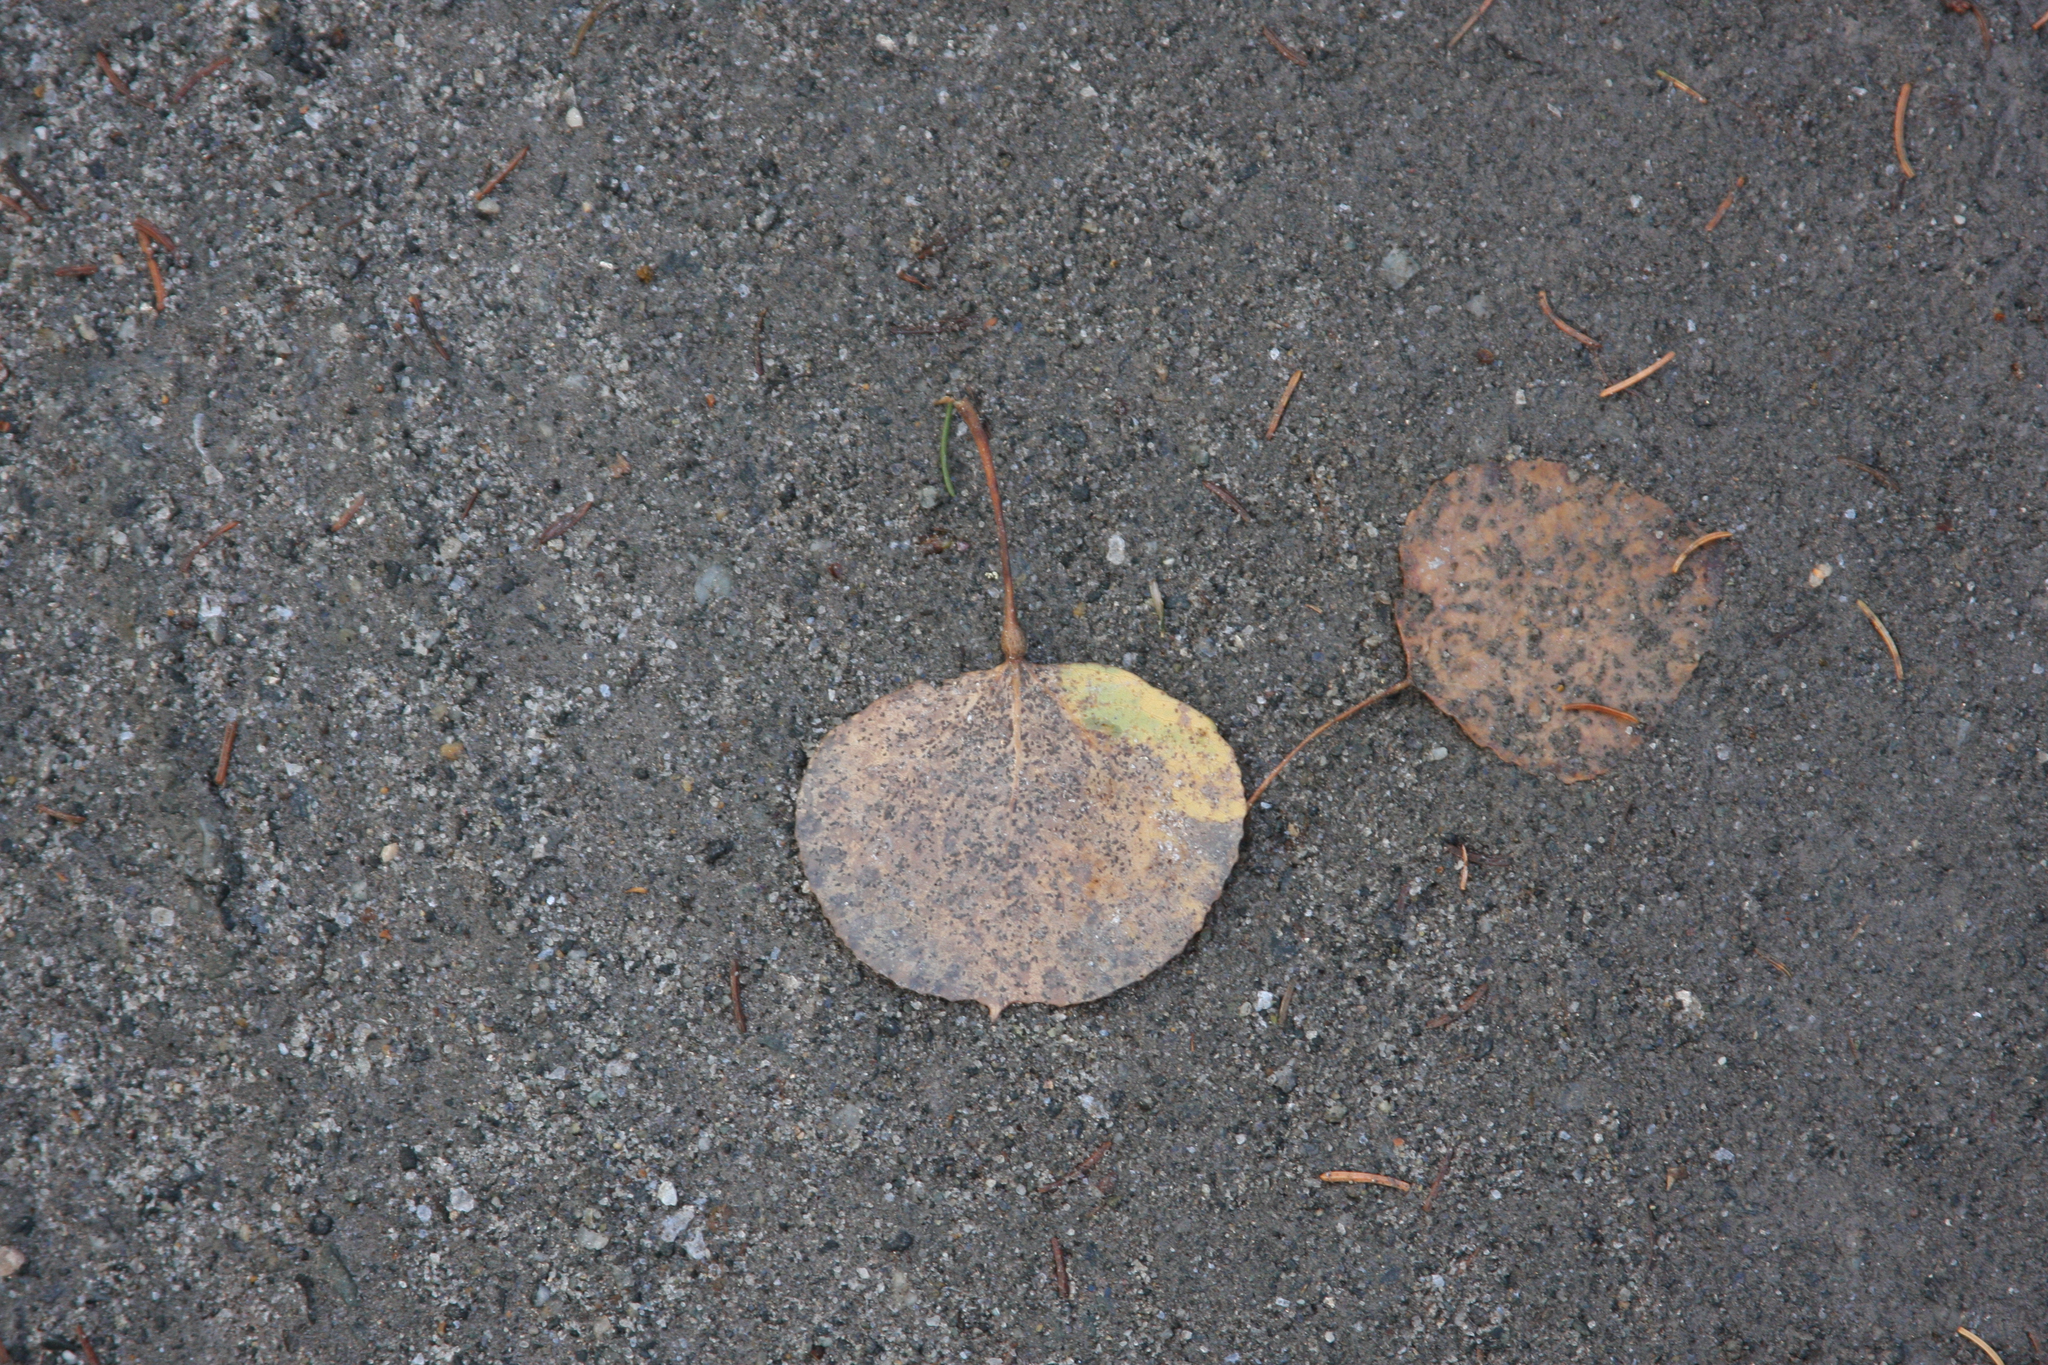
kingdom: Plantae
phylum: Tracheophyta
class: Magnoliopsida
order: Malpighiales
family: Salicaceae
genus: Populus
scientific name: Populus tremuloides
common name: Quaking aspen
